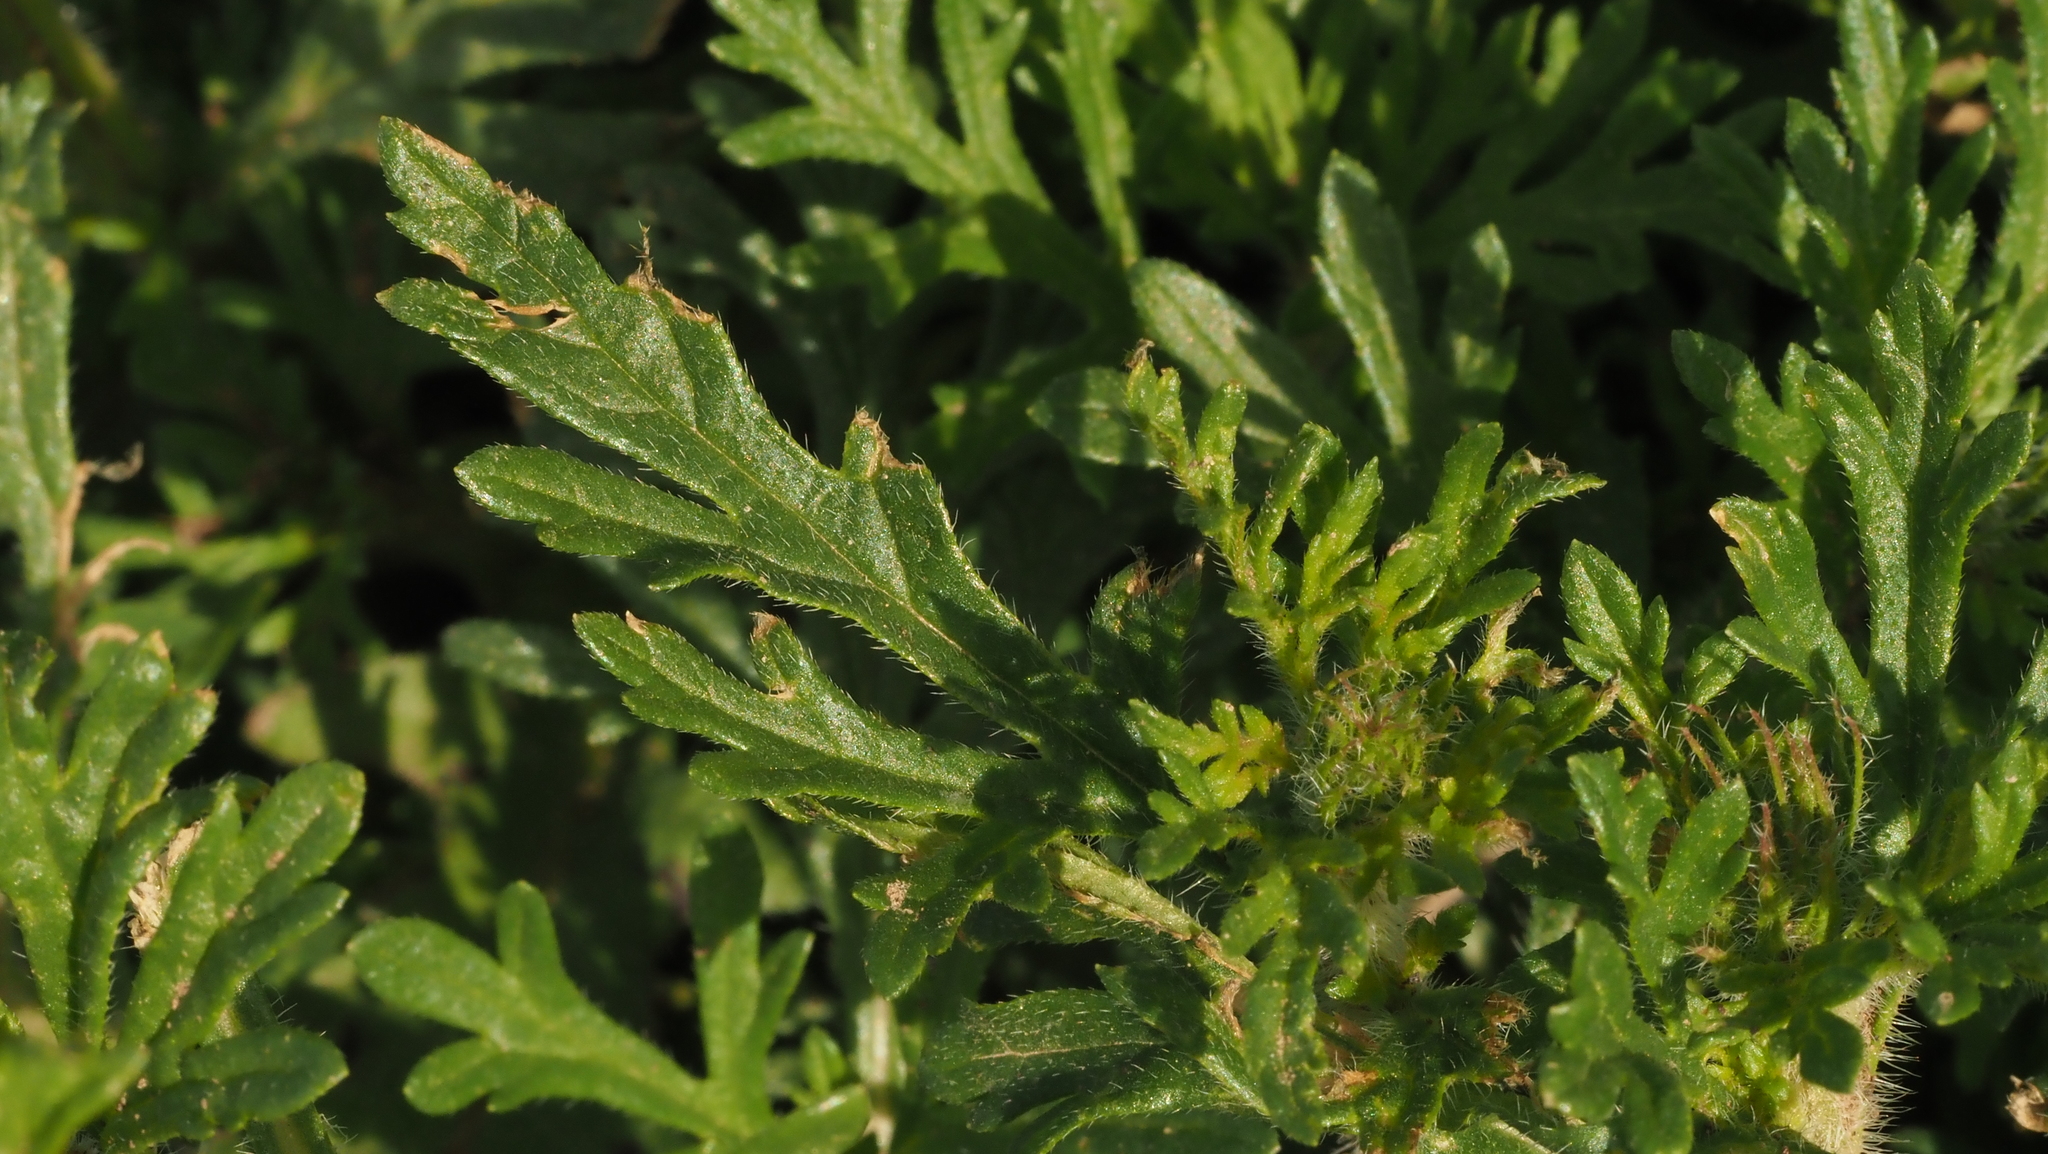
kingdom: Plantae
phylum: Tracheophyta
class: Magnoliopsida
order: Lamiales
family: Verbenaceae
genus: Verbena
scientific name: Verbena bipinnatifida
